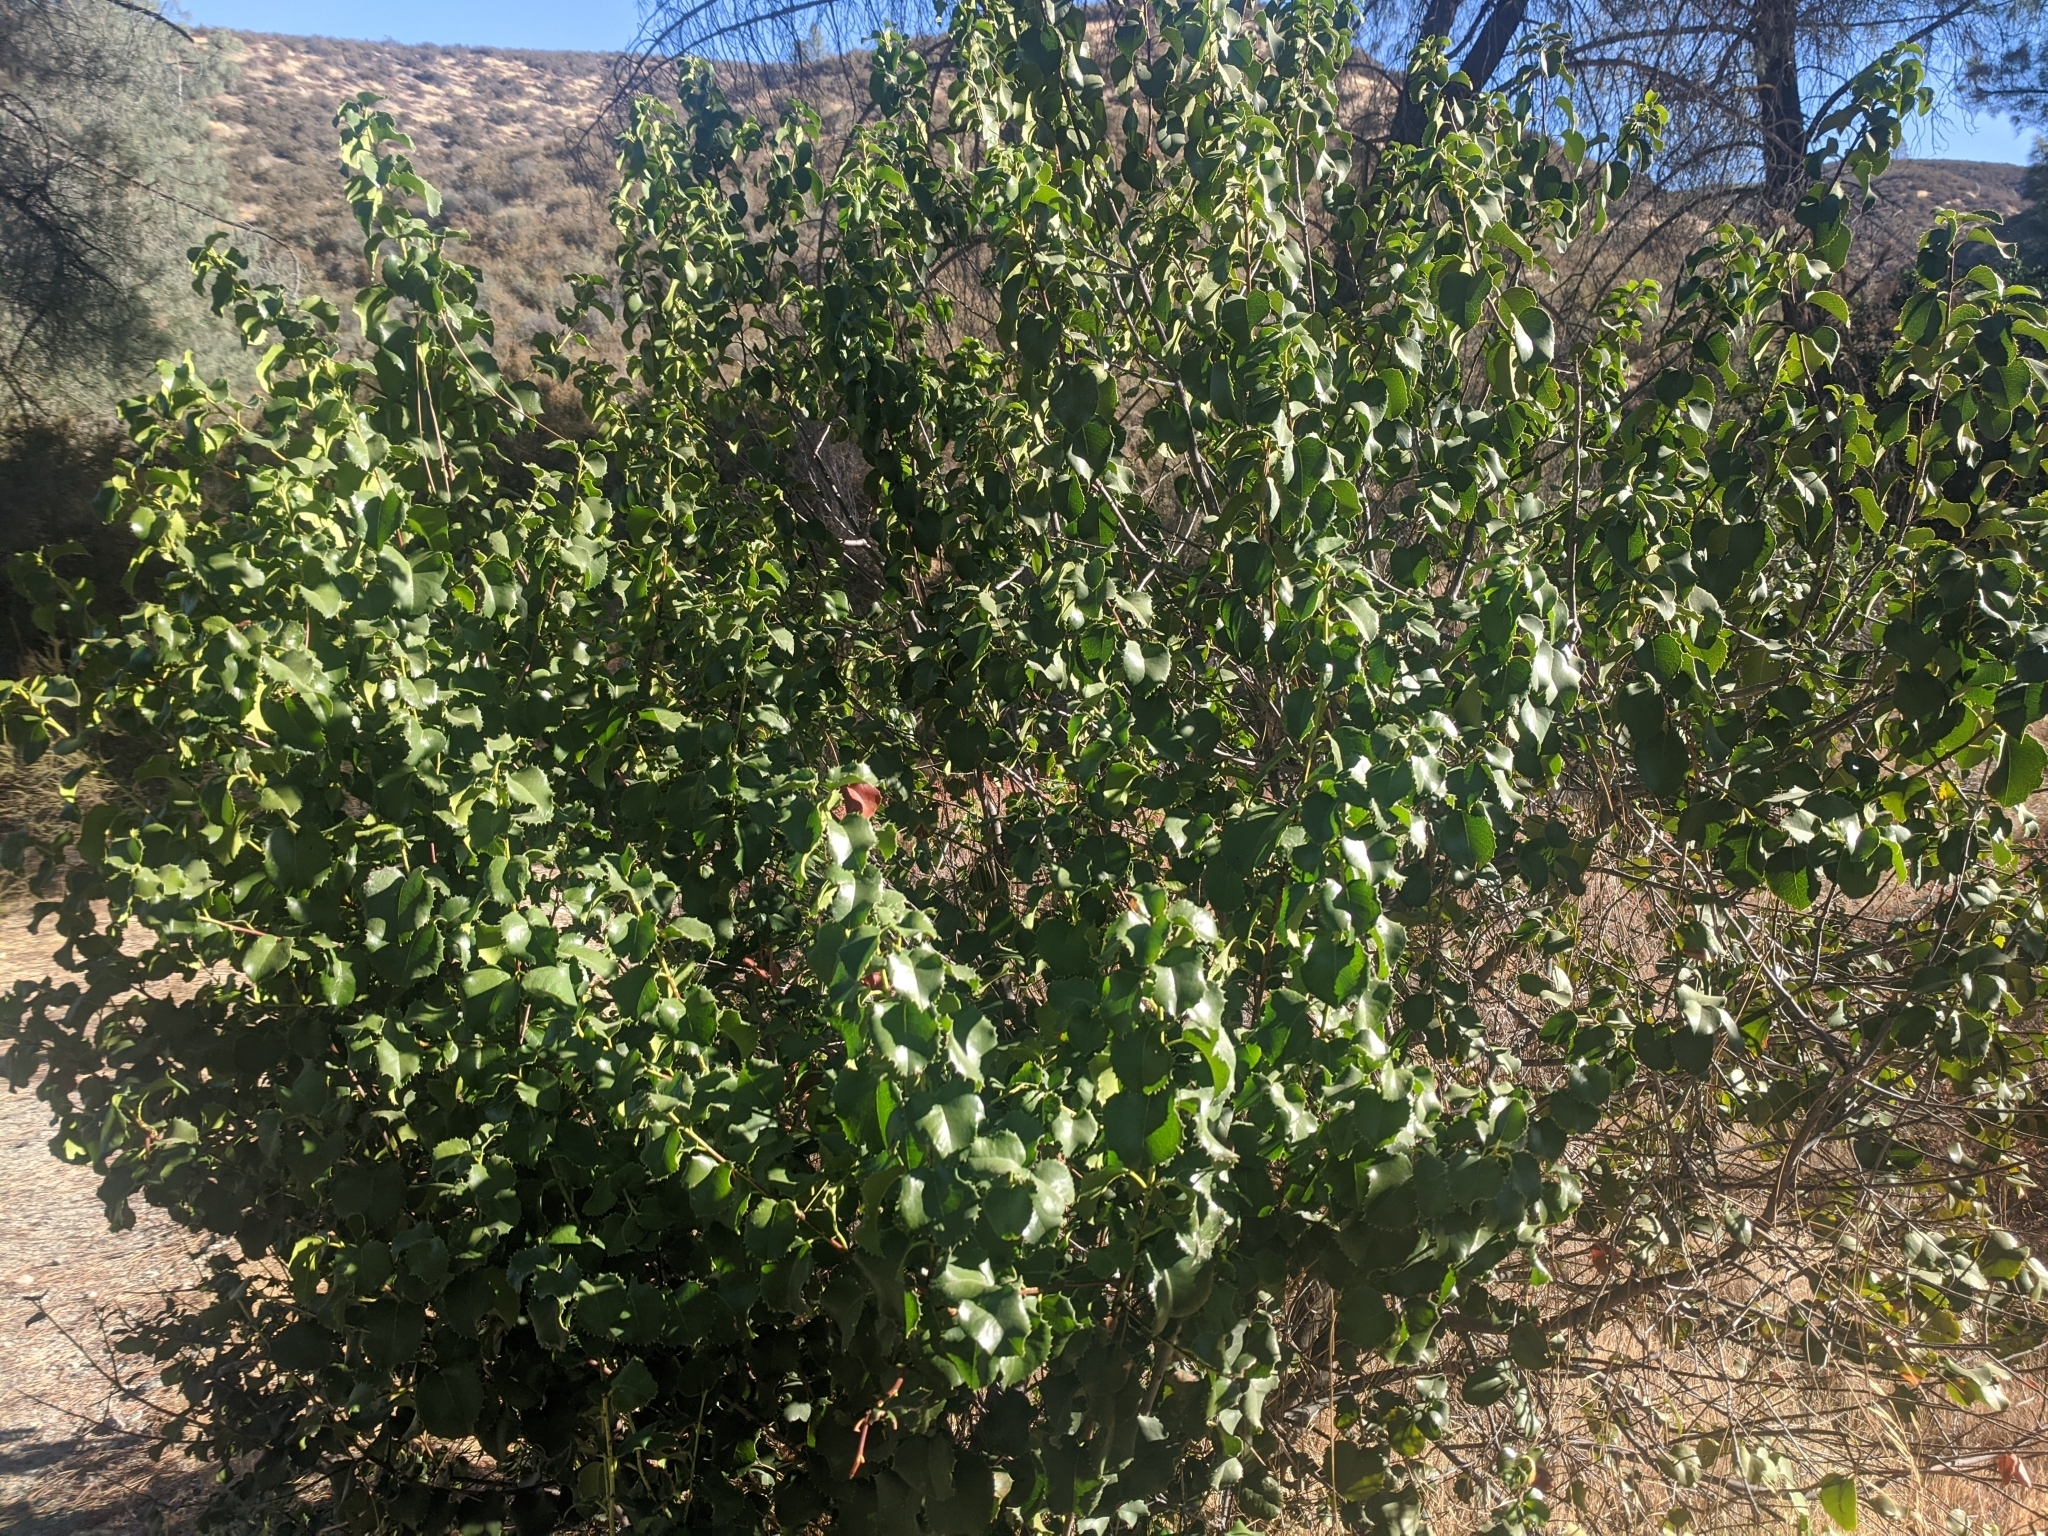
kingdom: Plantae
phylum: Tracheophyta
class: Magnoliopsida
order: Rosales
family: Rosaceae
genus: Prunus
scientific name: Prunus ilicifolia
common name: Hollyleaf cherry
